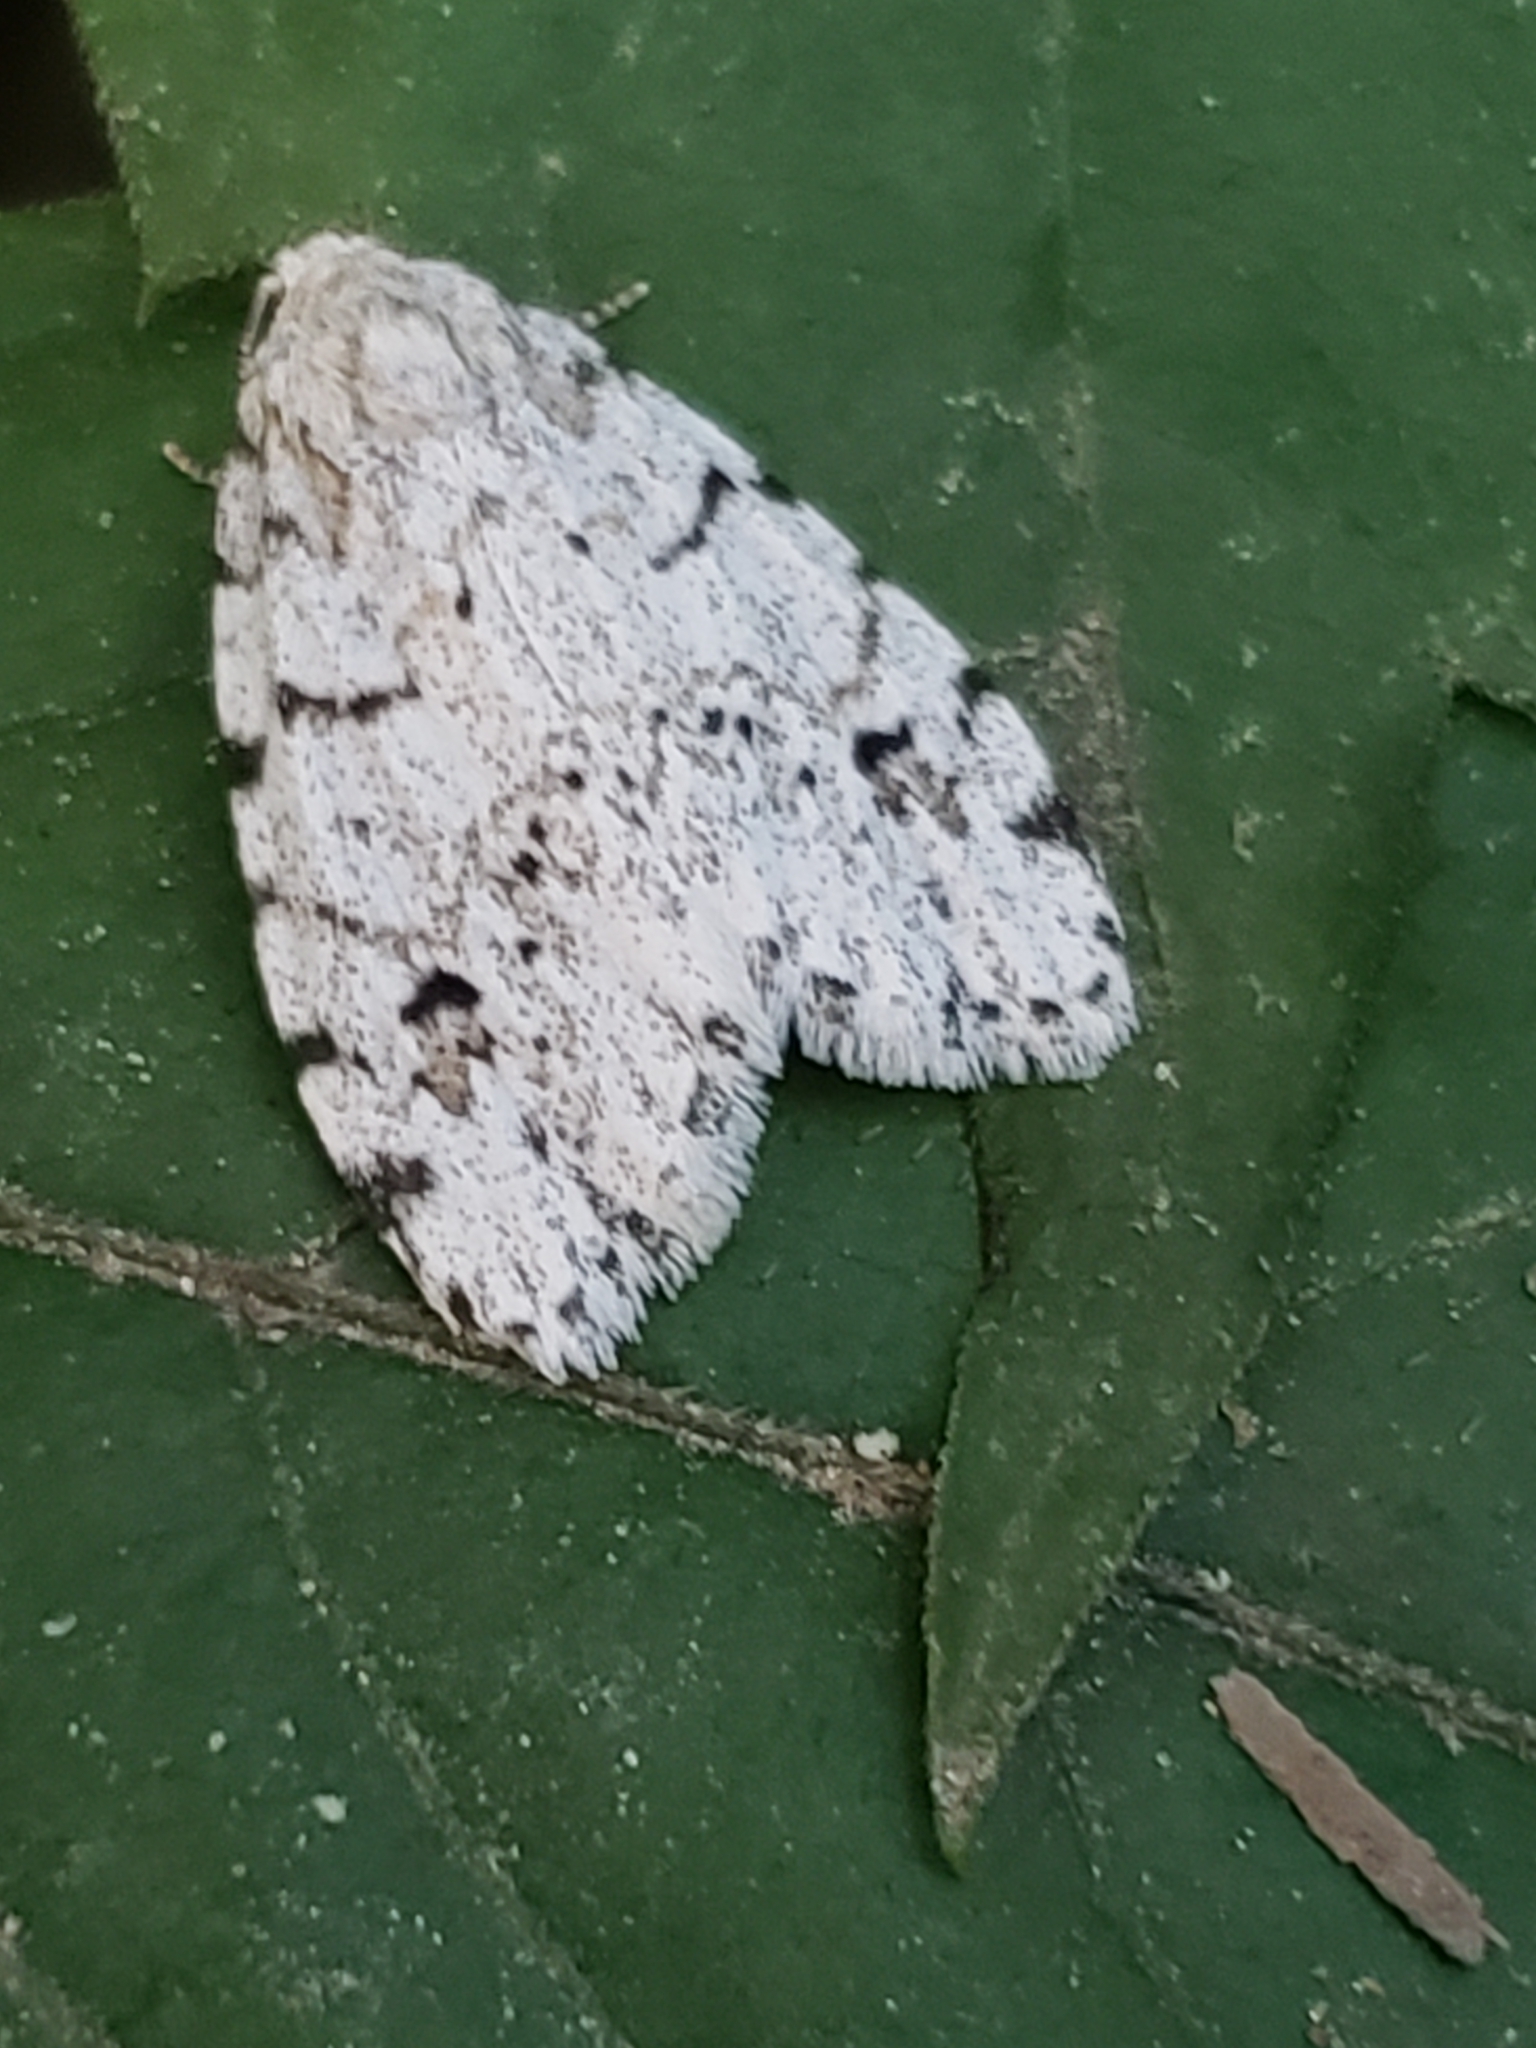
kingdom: Animalia
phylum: Arthropoda
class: Insecta
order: Lepidoptera
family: Erebidae
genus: Clemensia
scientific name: Clemensia albata
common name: Little white lichen moth
